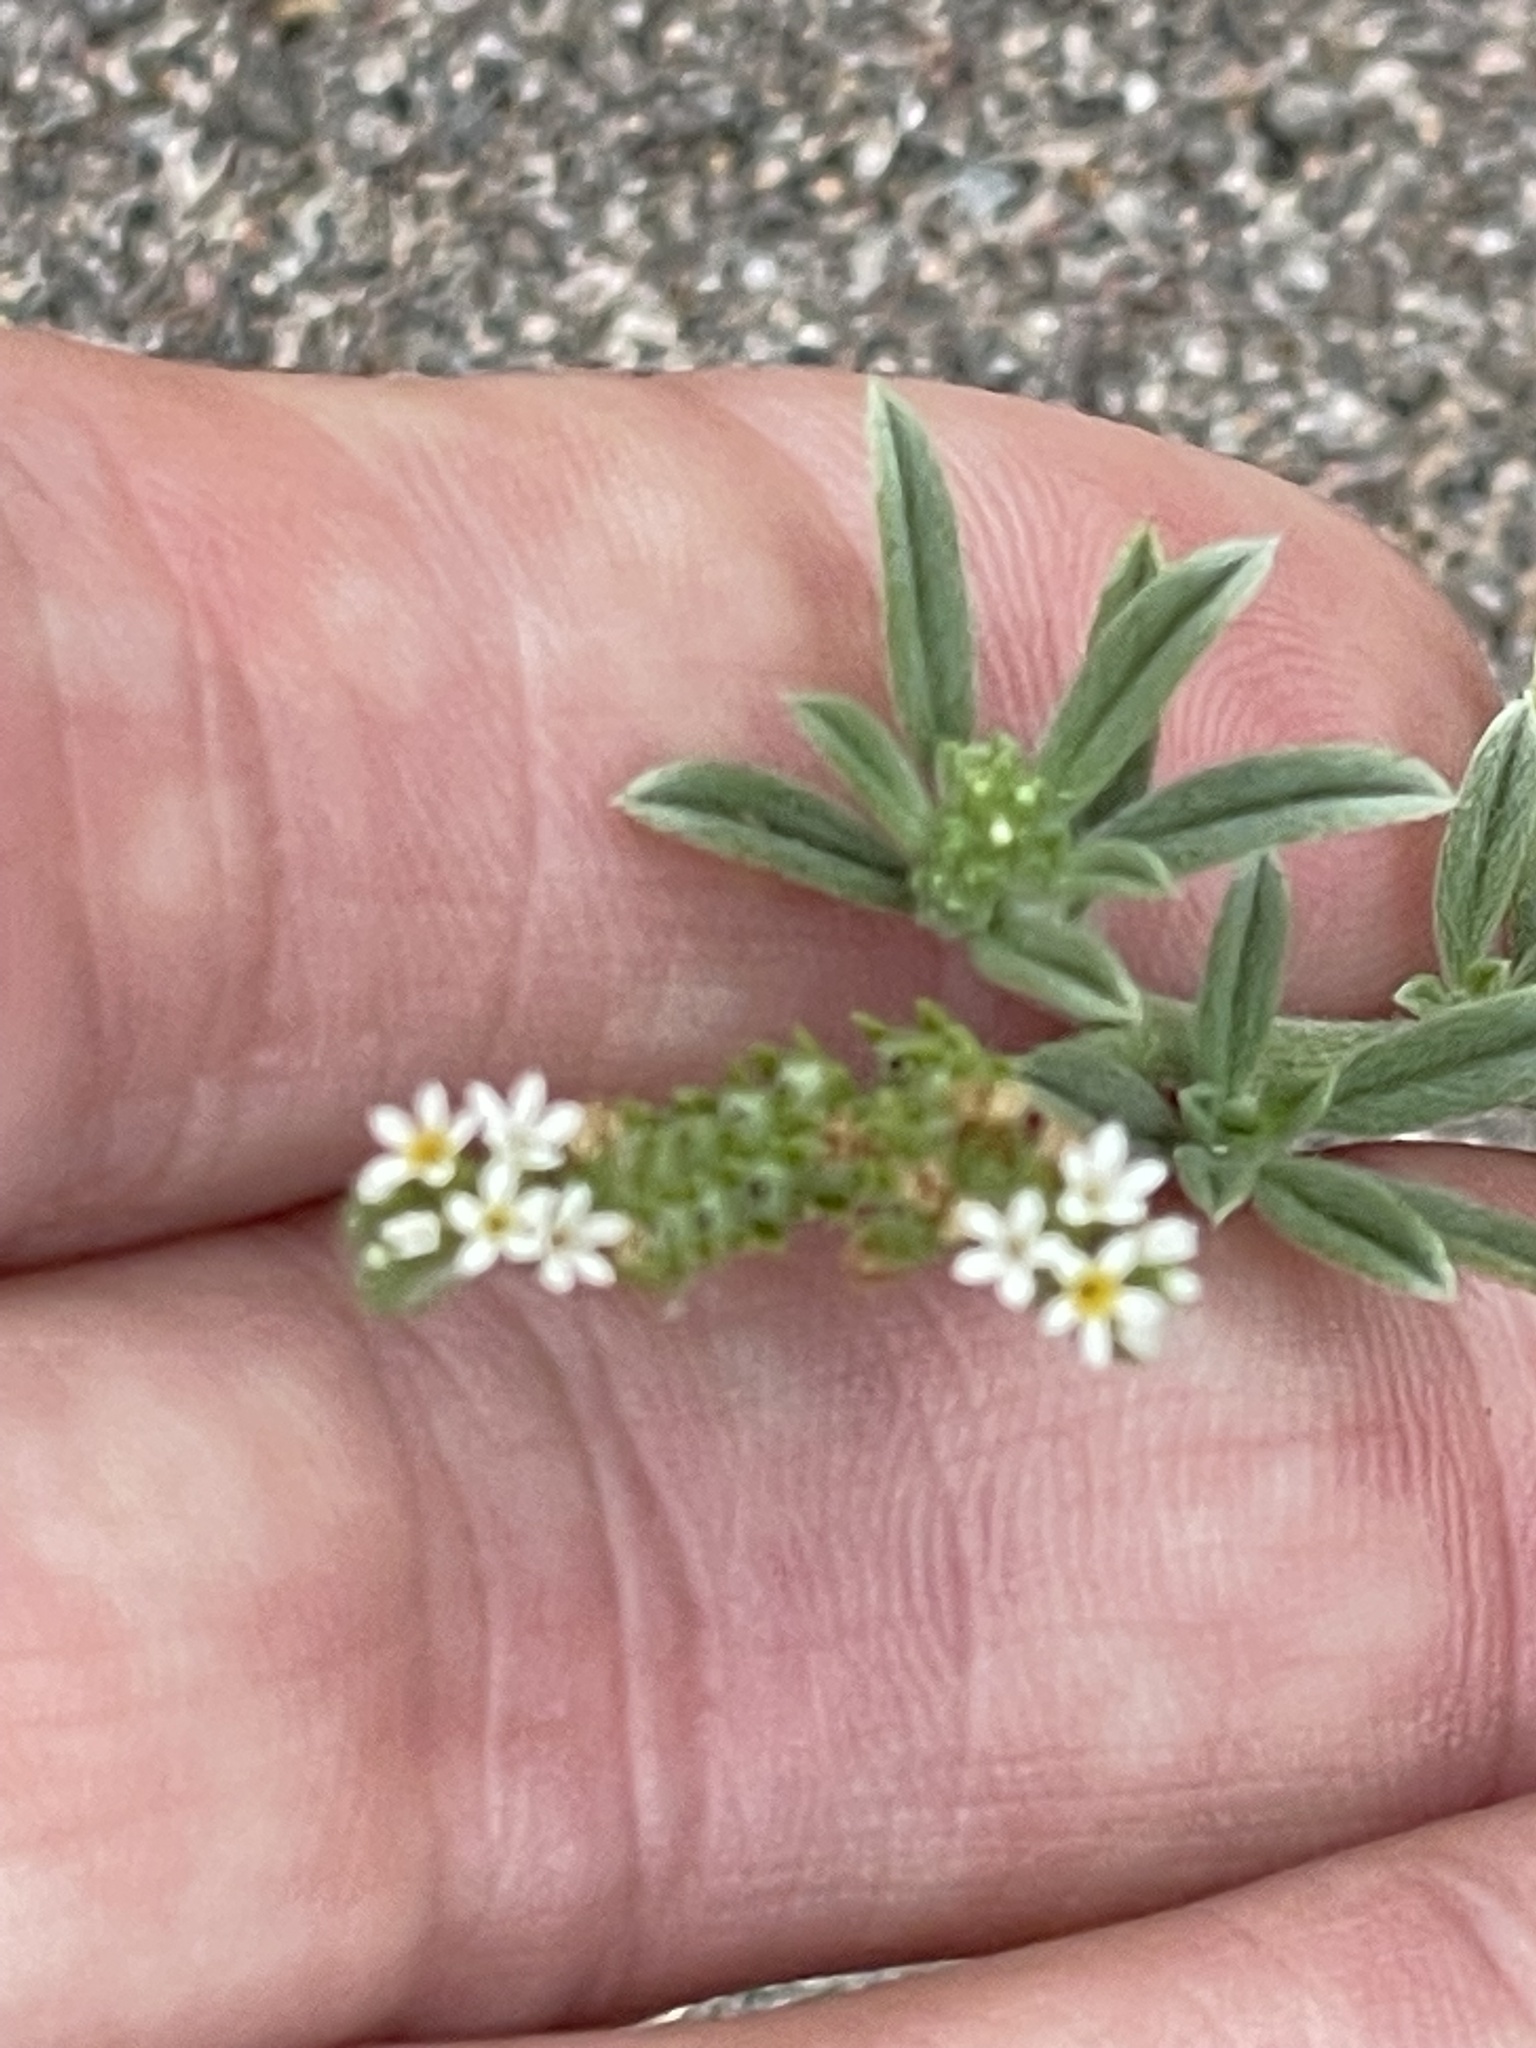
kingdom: Plantae
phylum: Tracheophyta
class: Magnoliopsida
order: Boraginales
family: Heliotropiaceae
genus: Euploca
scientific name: Euploca procumbens
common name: Fourspike heliotrope
